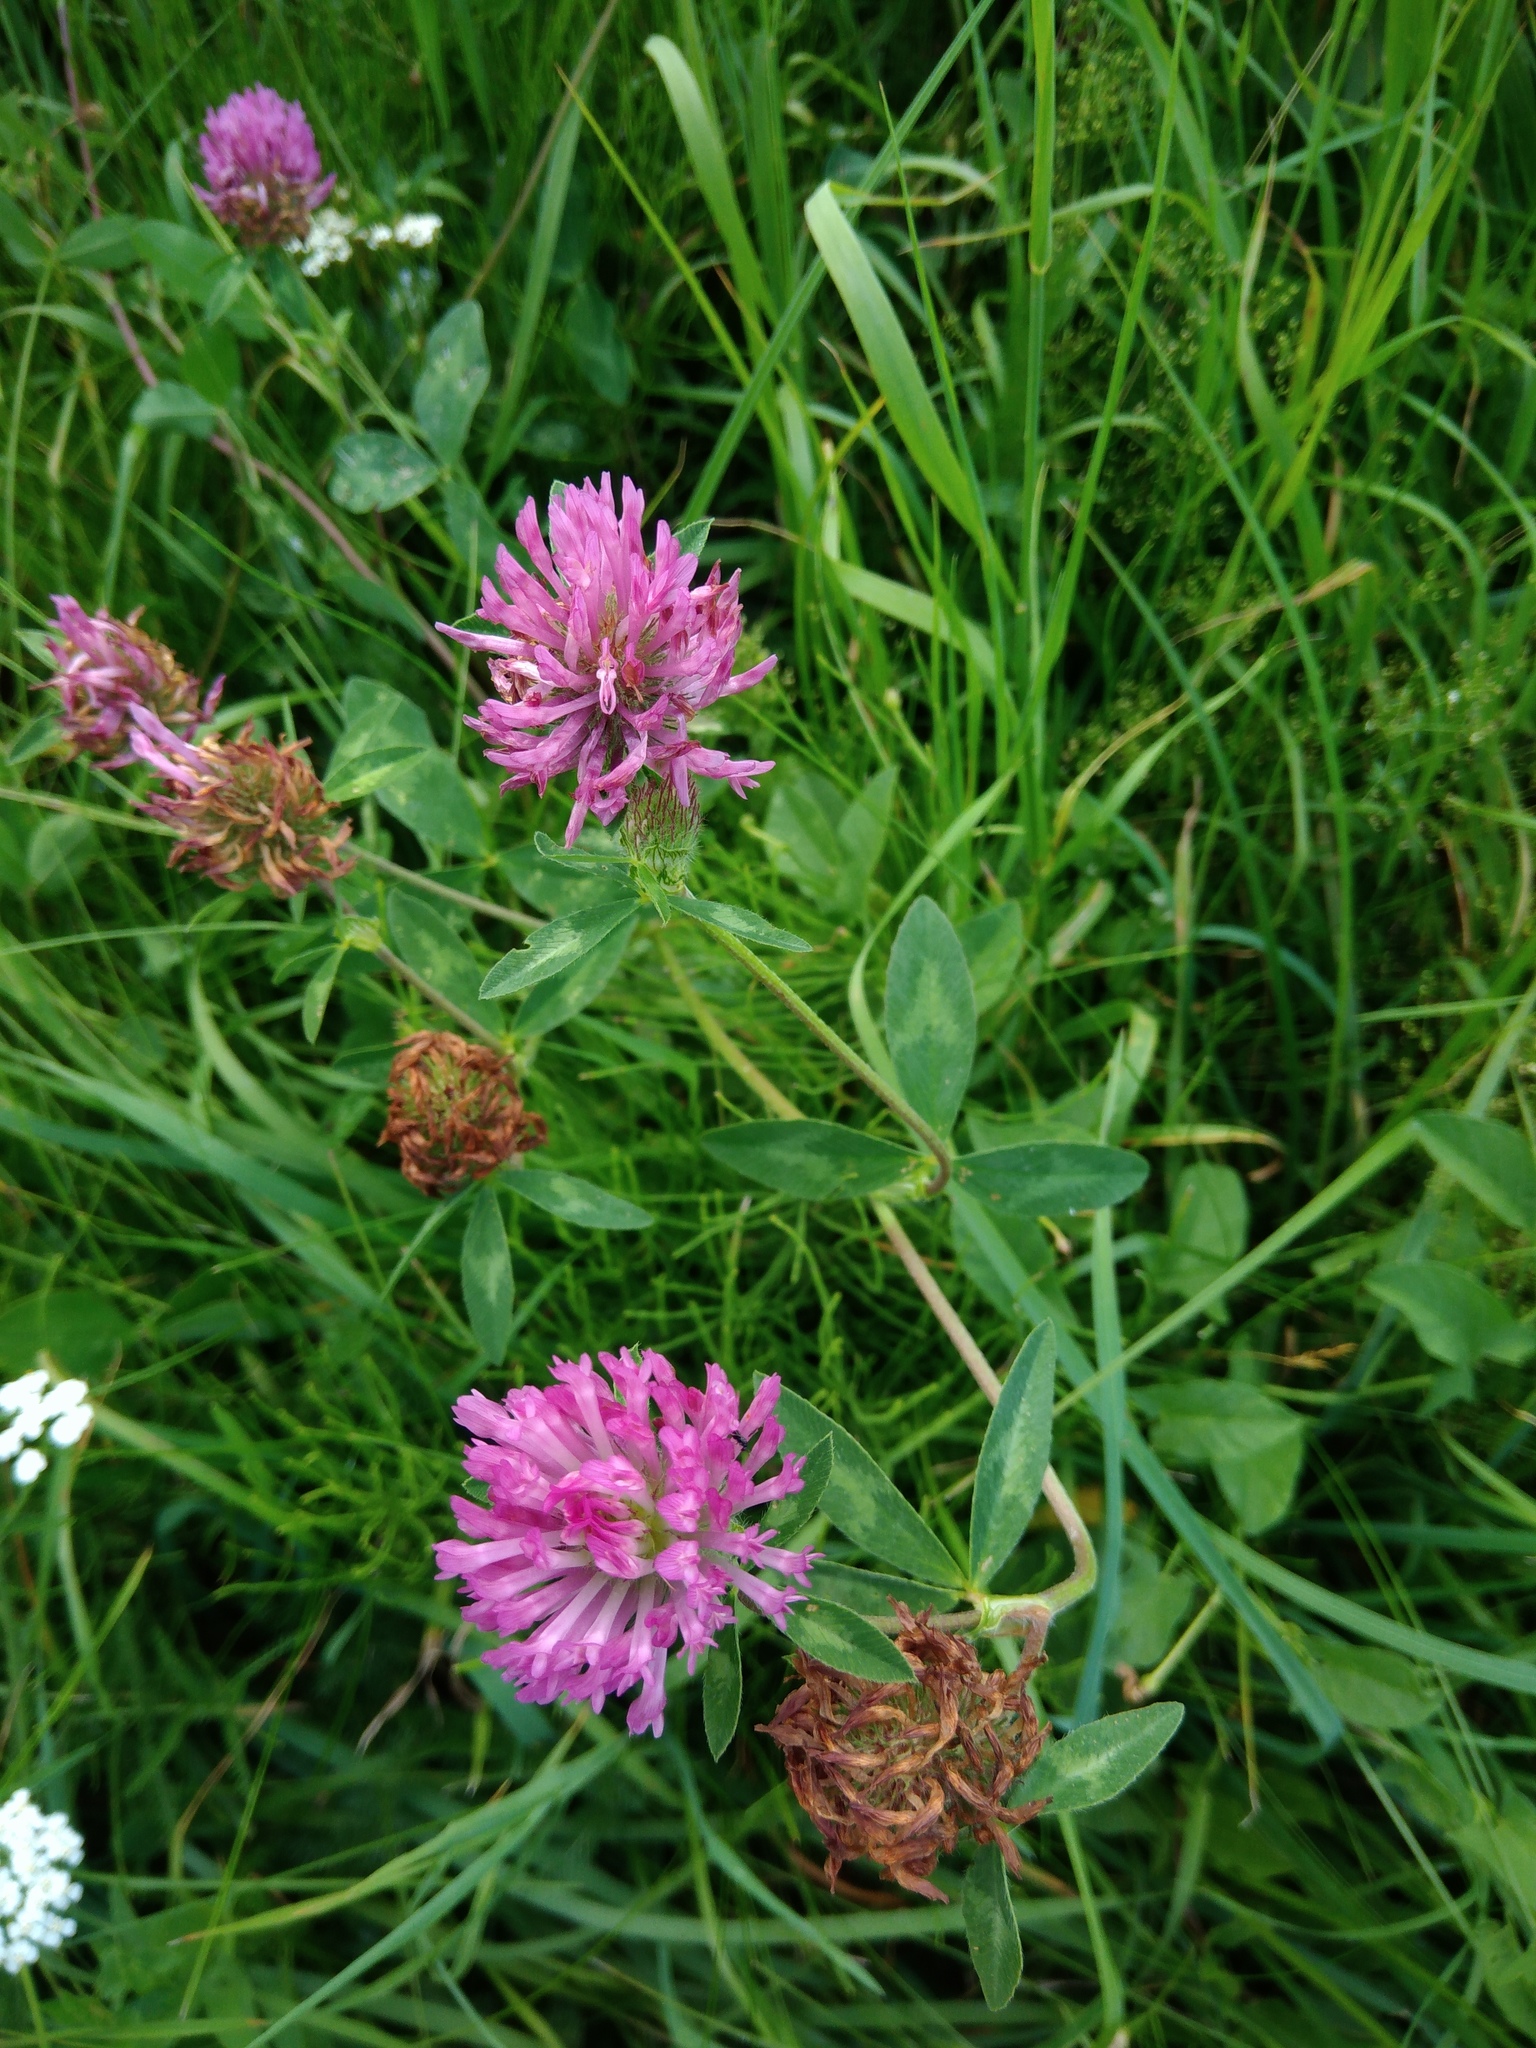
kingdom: Plantae
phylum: Tracheophyta
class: Magnoliopsida
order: Fabales
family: Fabaceae
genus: Trifolium
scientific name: Trifolium pratense
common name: Red clover
